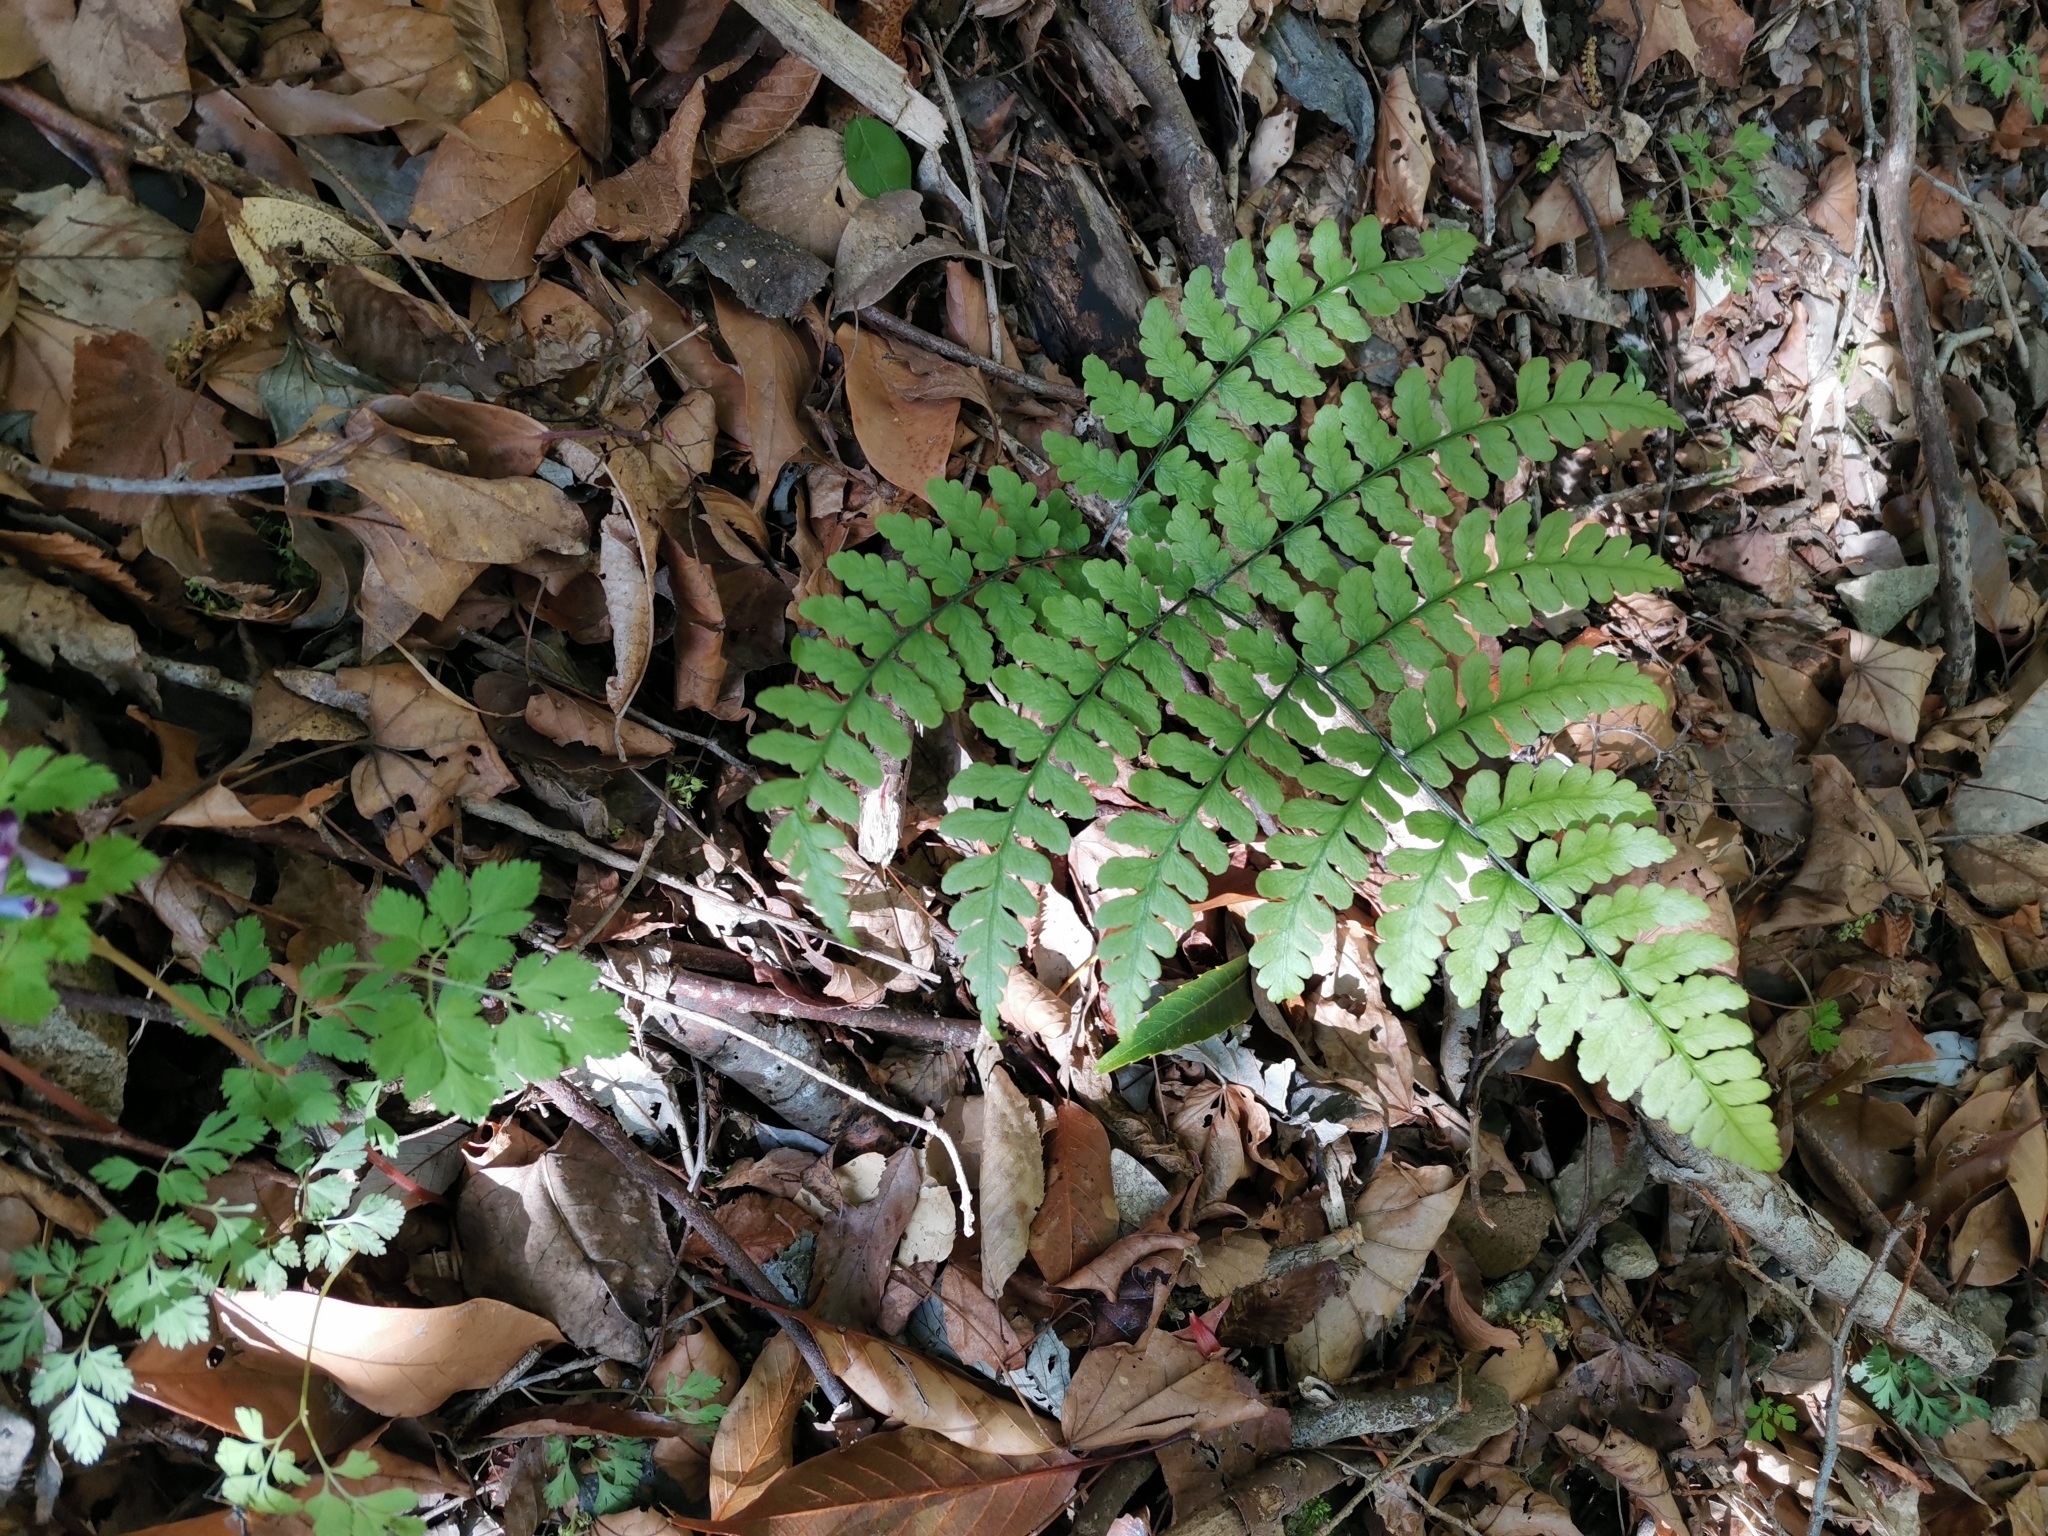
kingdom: Plantae
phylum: Tracheophyta
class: Polypodiopsida
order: Polypodiales
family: Athyriaceae
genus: Diplazium
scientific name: Diplazium squamigerum
